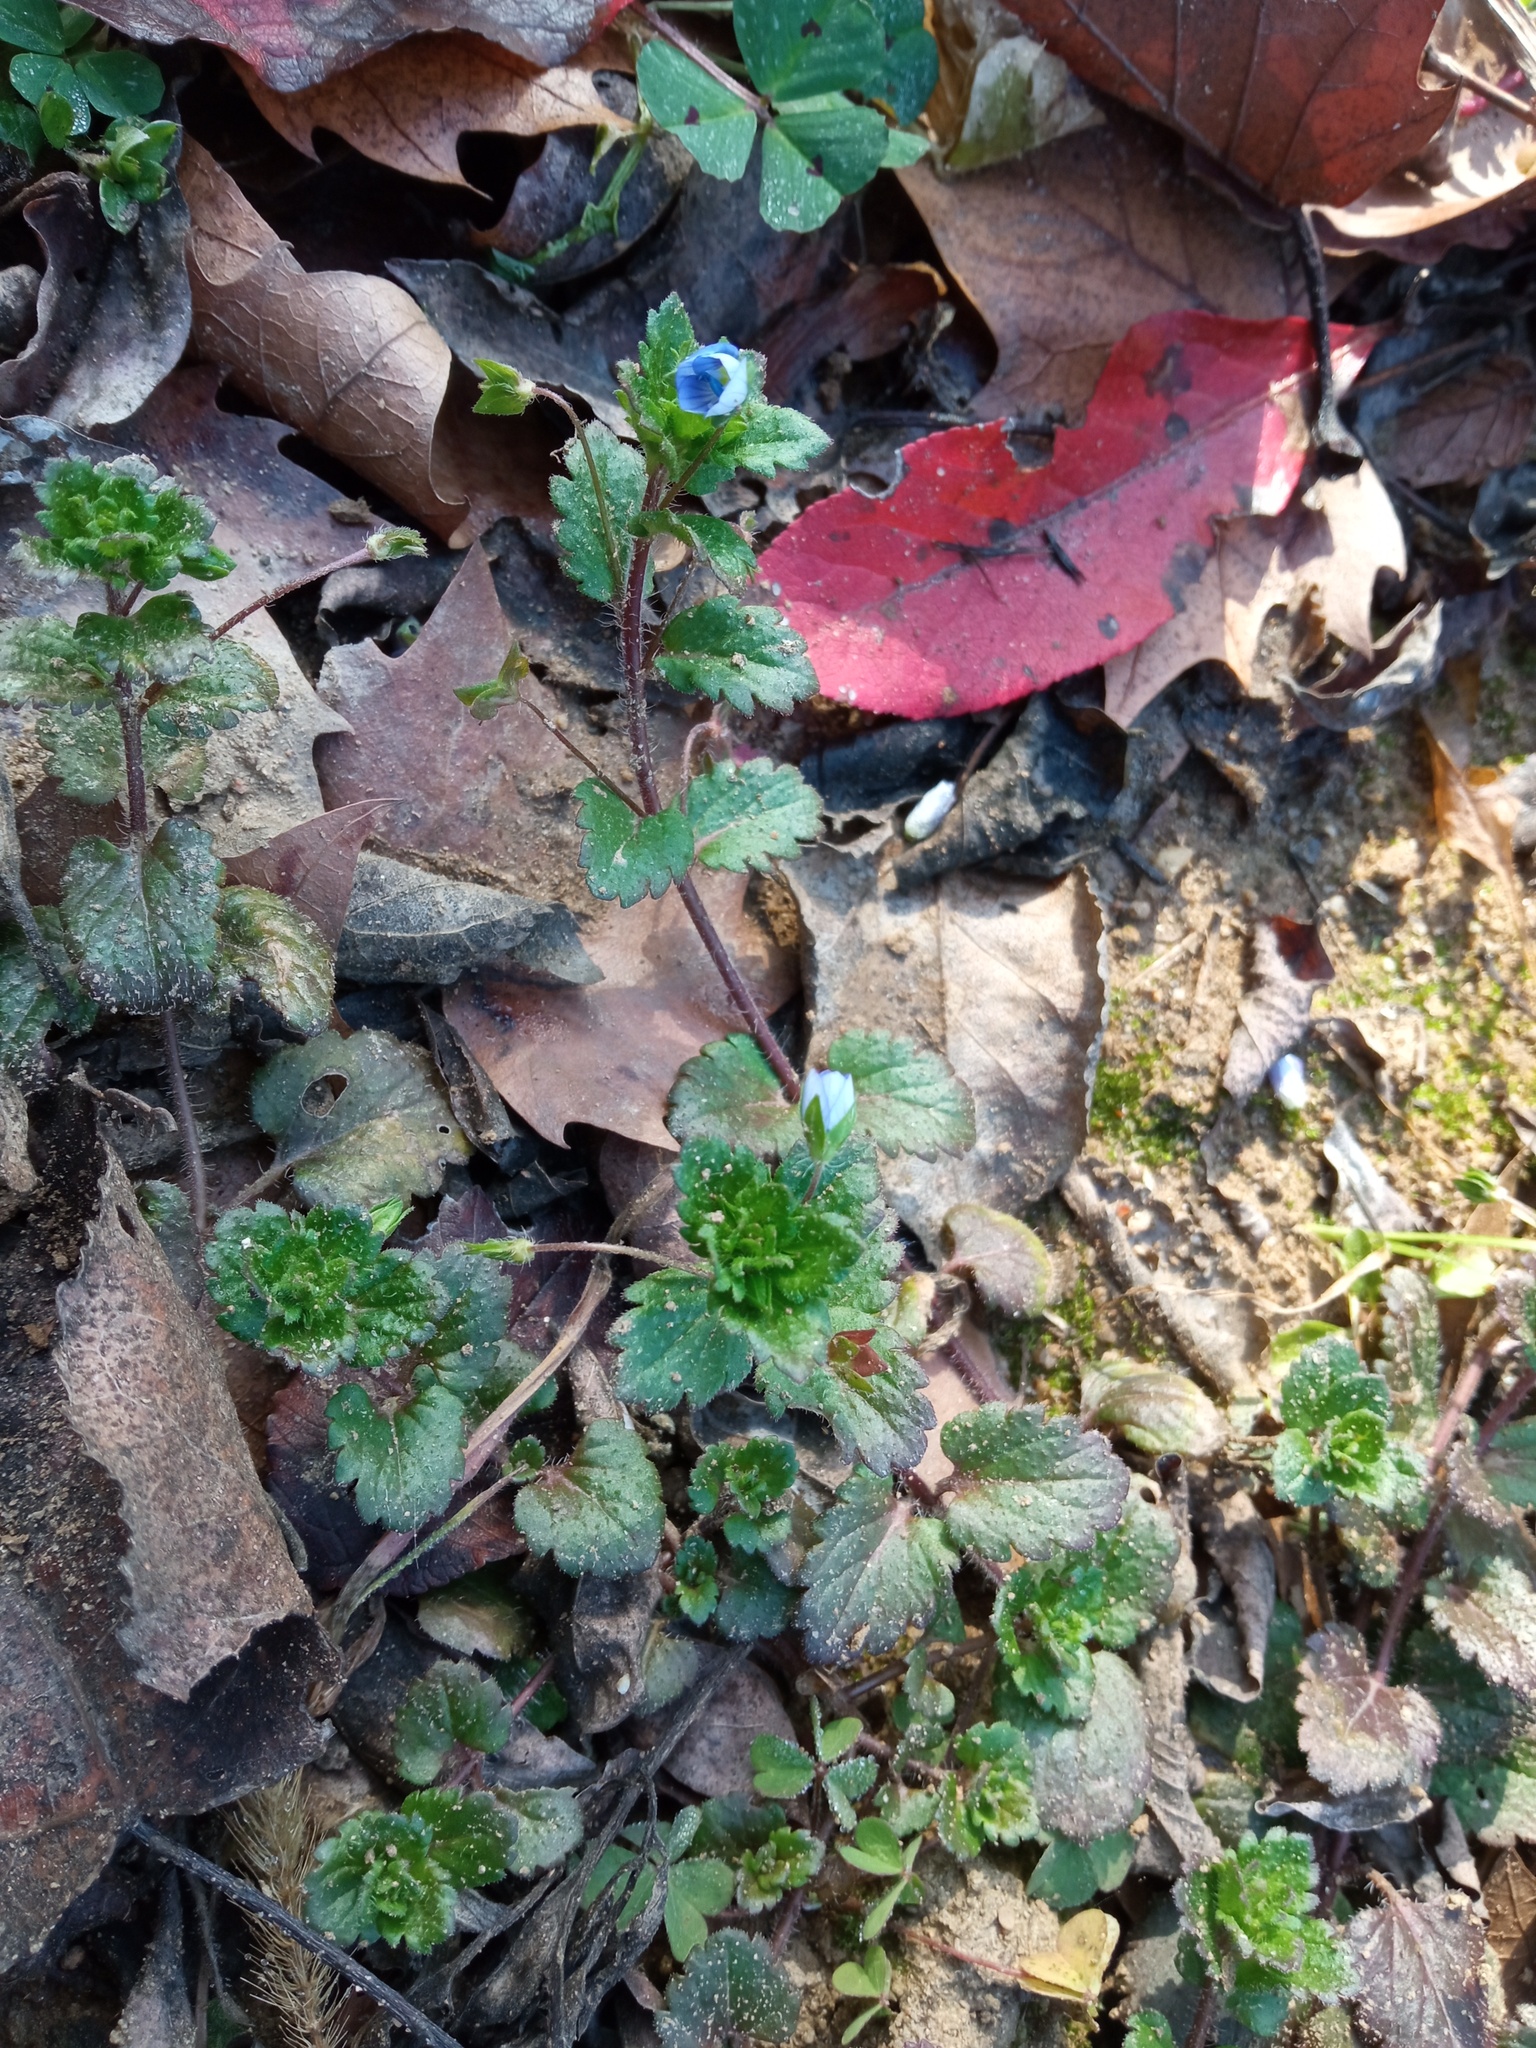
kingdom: Plantae
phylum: Tracheophyta
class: Magnoliopsida
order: Lamiales
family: Plantaginaceae
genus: Veronica
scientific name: Veronica persica
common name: Common field-speedwell
